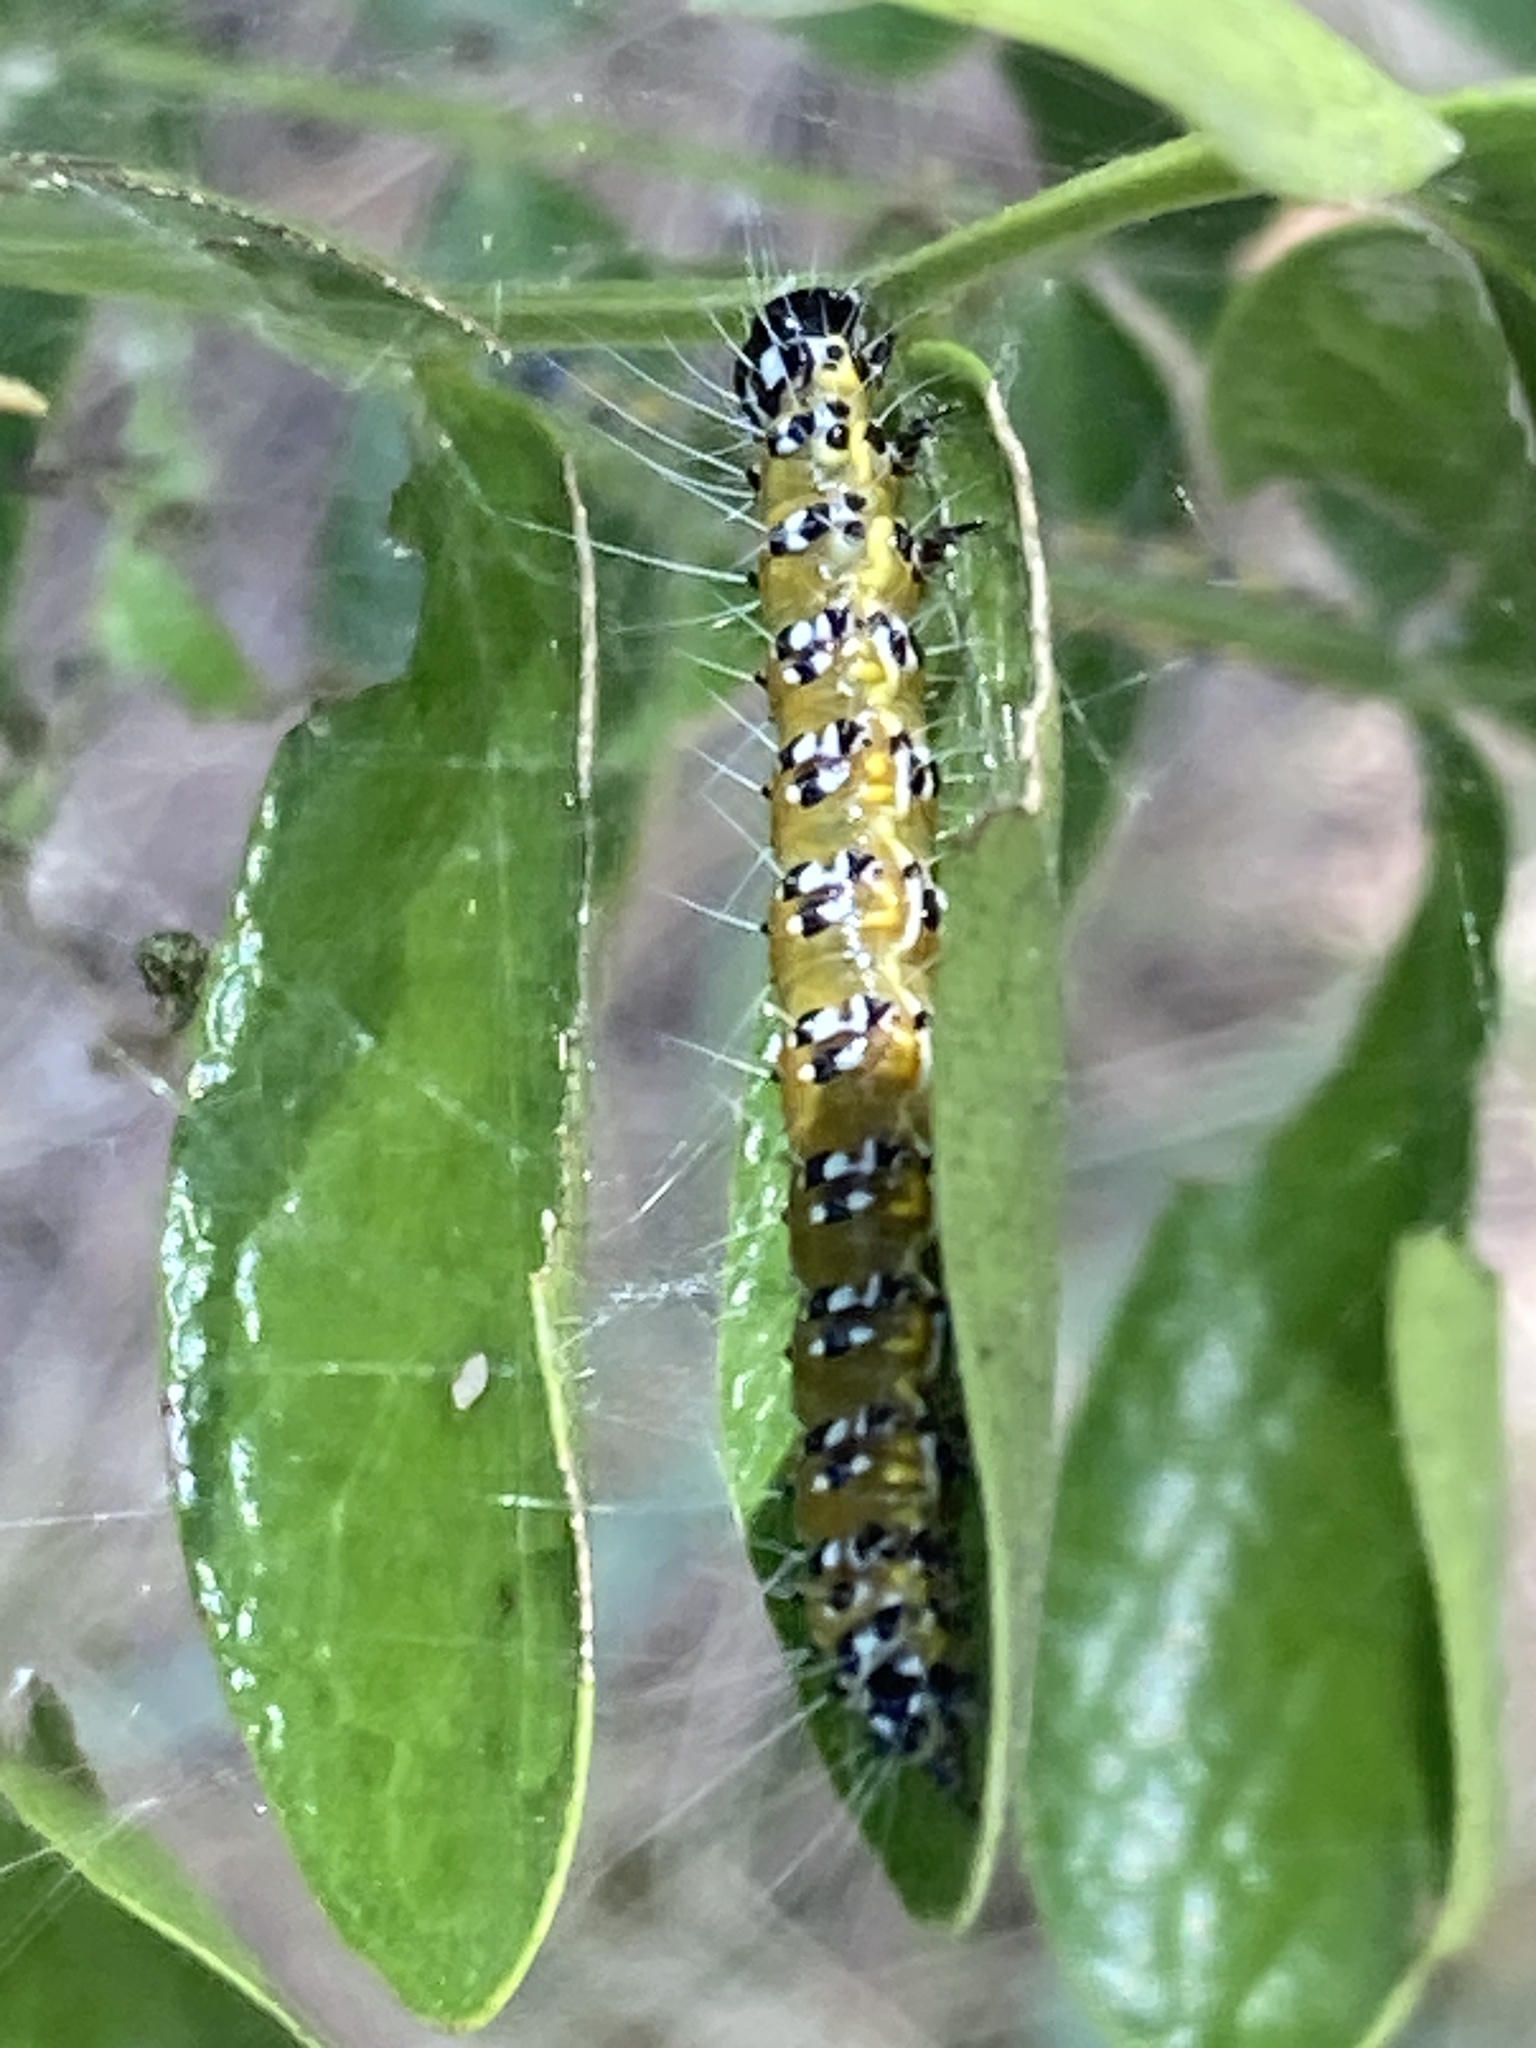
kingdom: Animalia
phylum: Arthropoda
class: Insecta
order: Lepidoptera
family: Crambidae
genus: Uresiphita
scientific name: Uresiphita reversalis
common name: Genista broom moth
